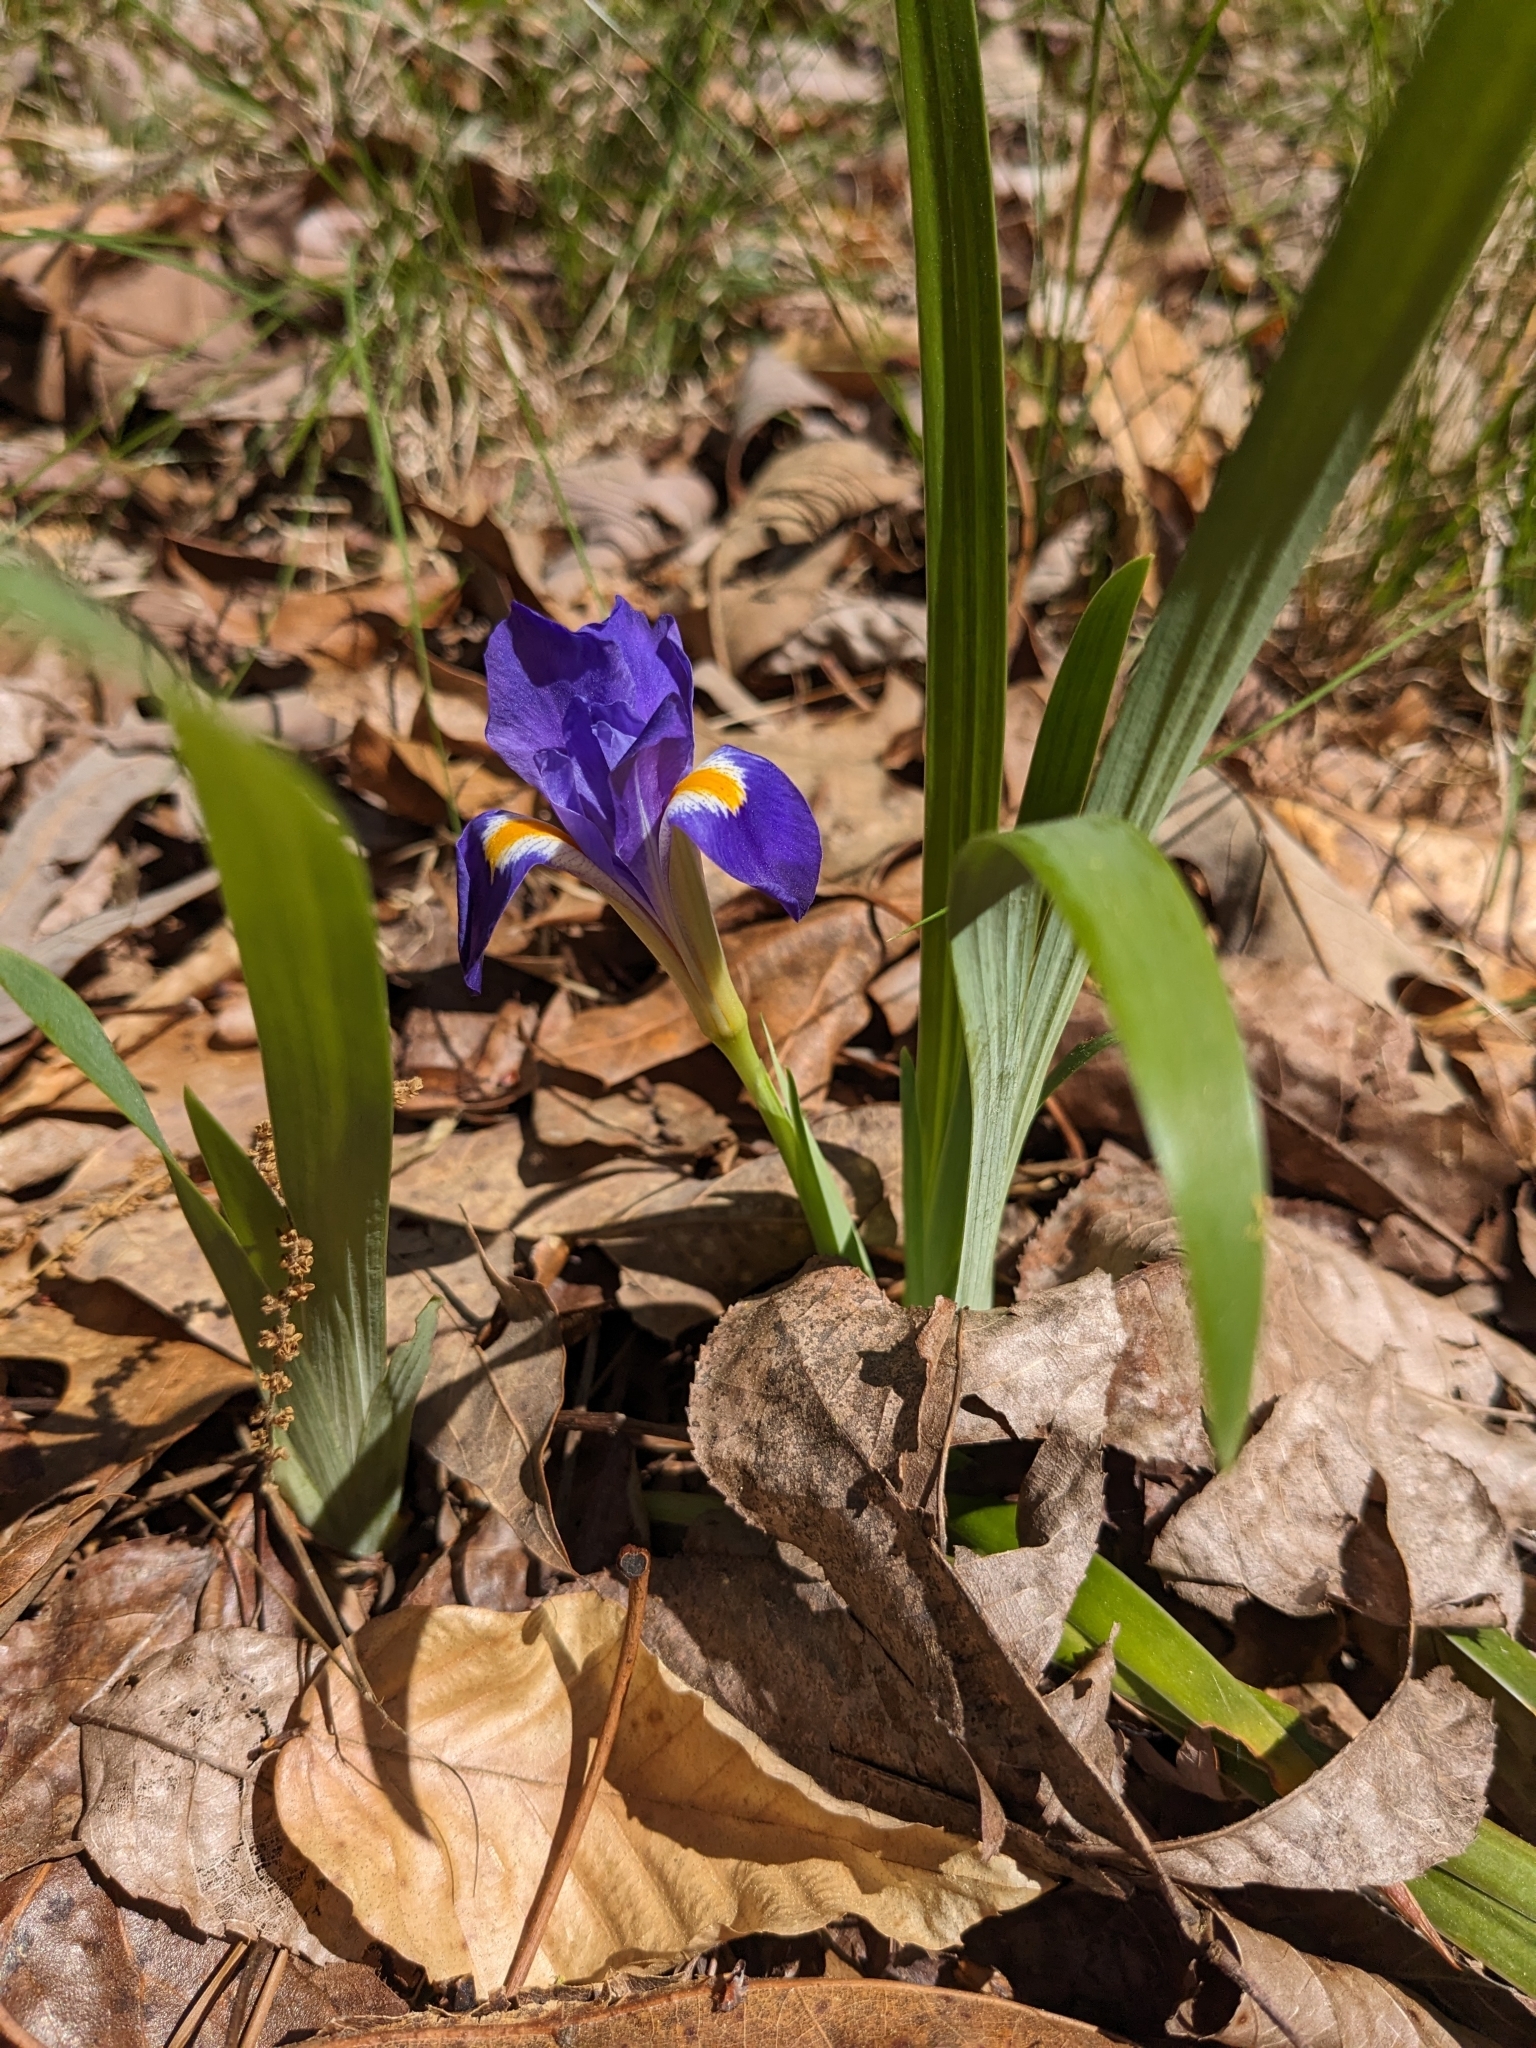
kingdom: Plantae
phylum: Tracheophyta
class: Liliopsida
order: Asparagales
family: Iridaceae
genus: Iris
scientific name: Iris verna
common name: Dwarf iris
